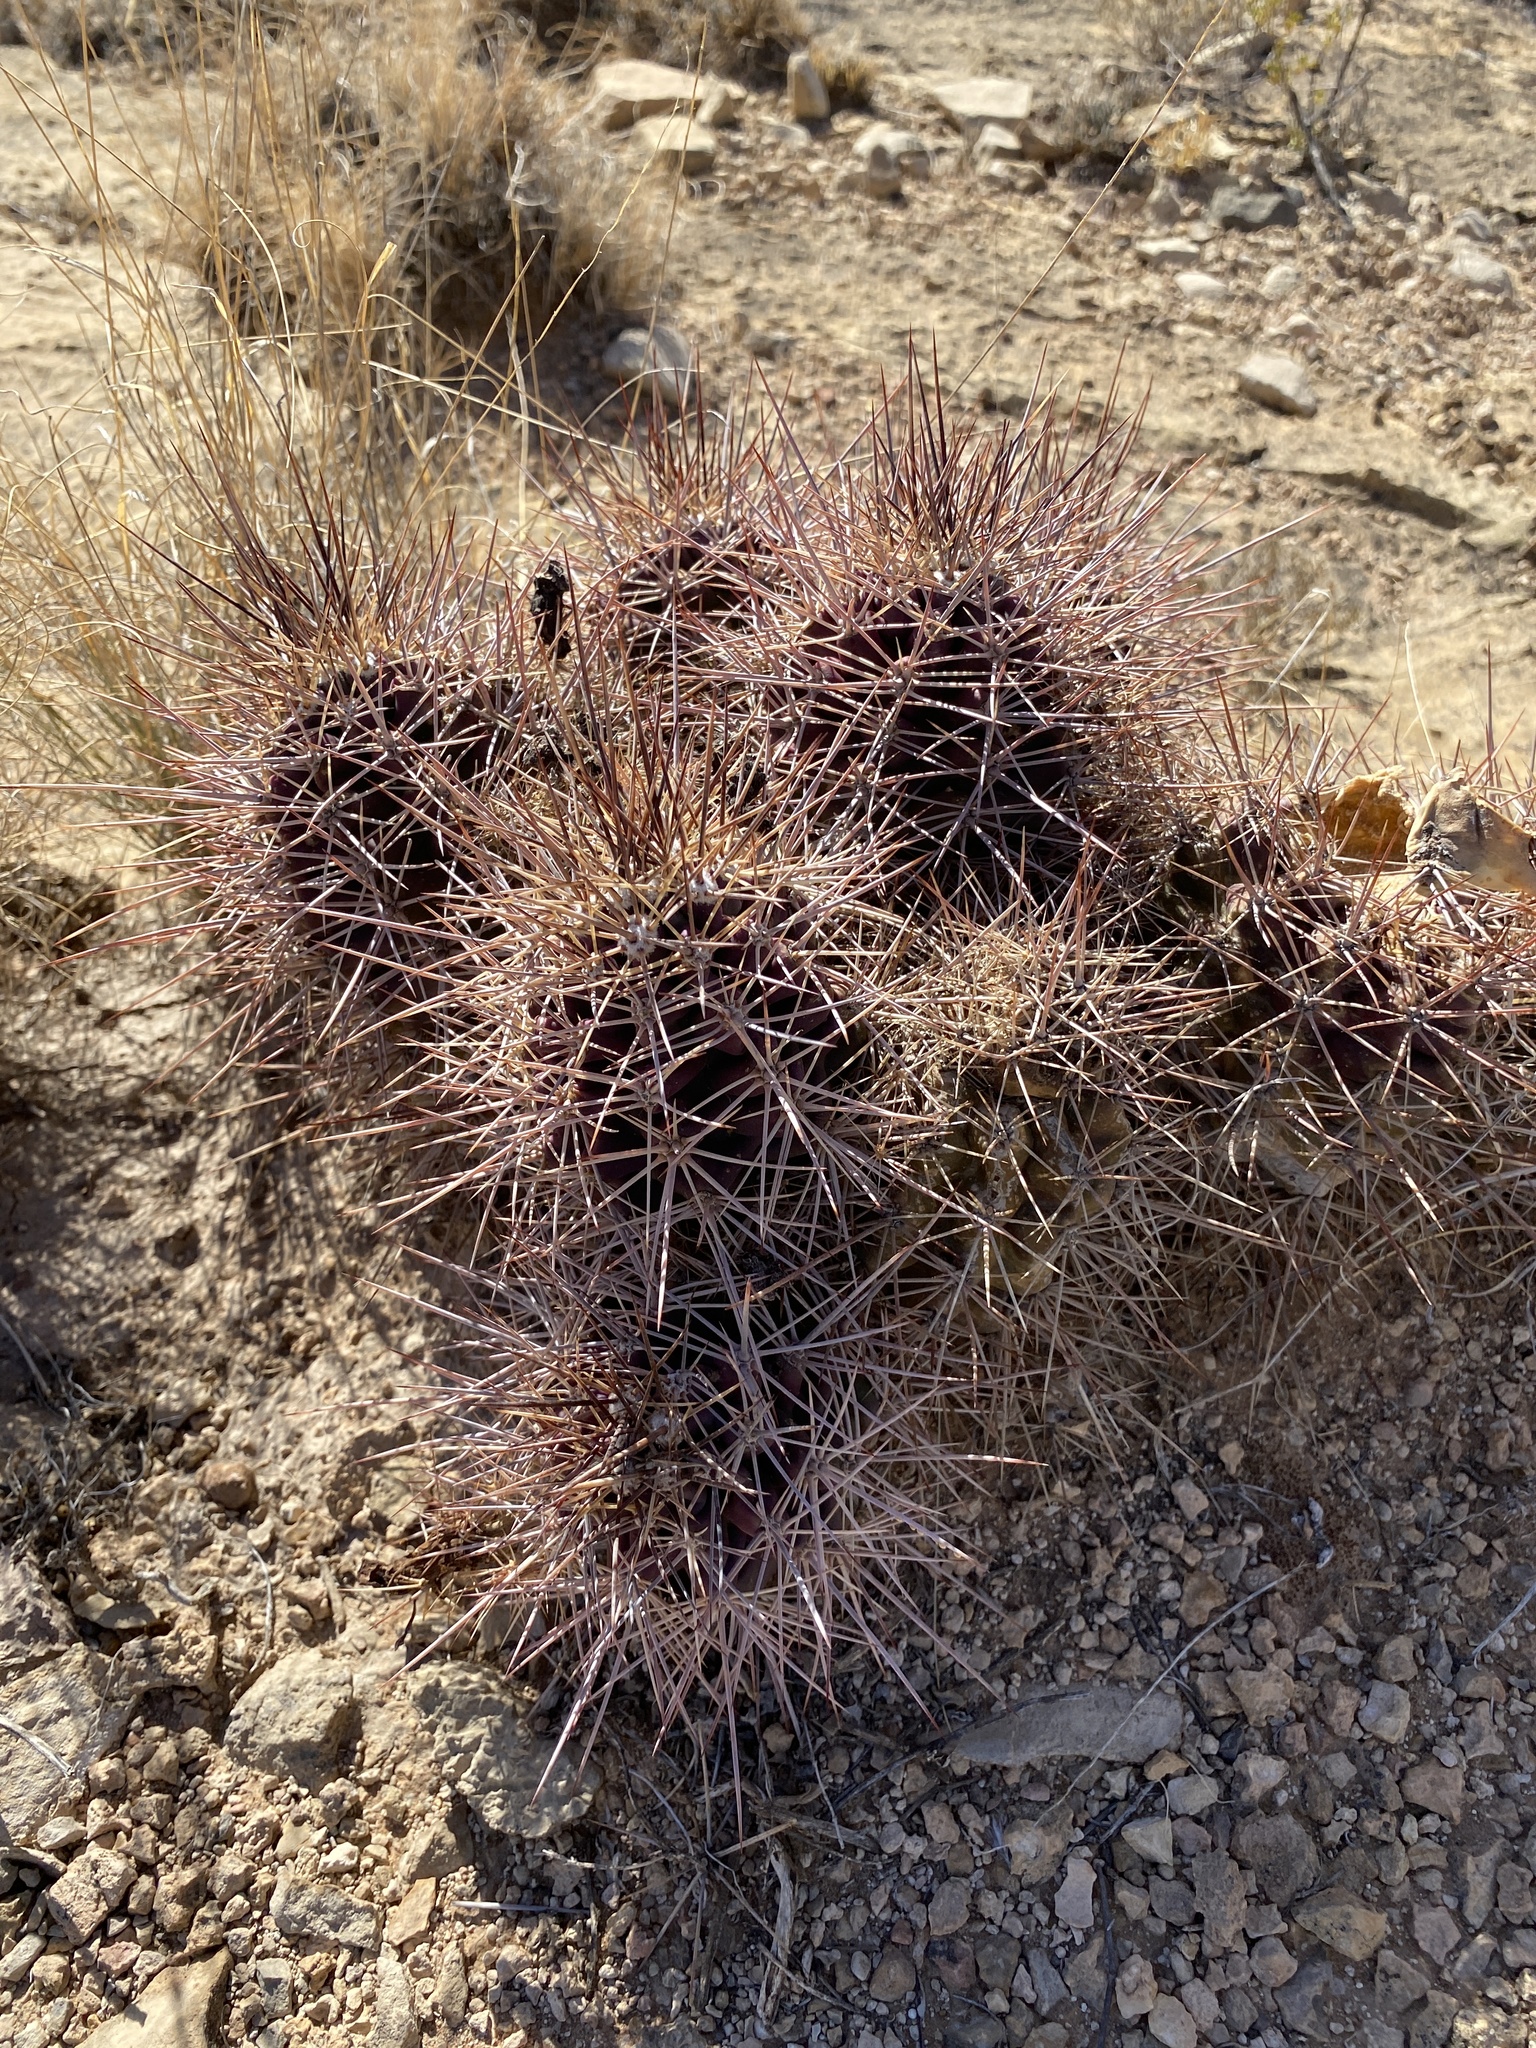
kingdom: Plantae
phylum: Tracheophyta
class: Magnoliopsida
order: Caryophyllales
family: Cactaceae
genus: Echinocereus
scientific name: Echinocereus coccineus
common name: Scarlet hedgehog cactus
